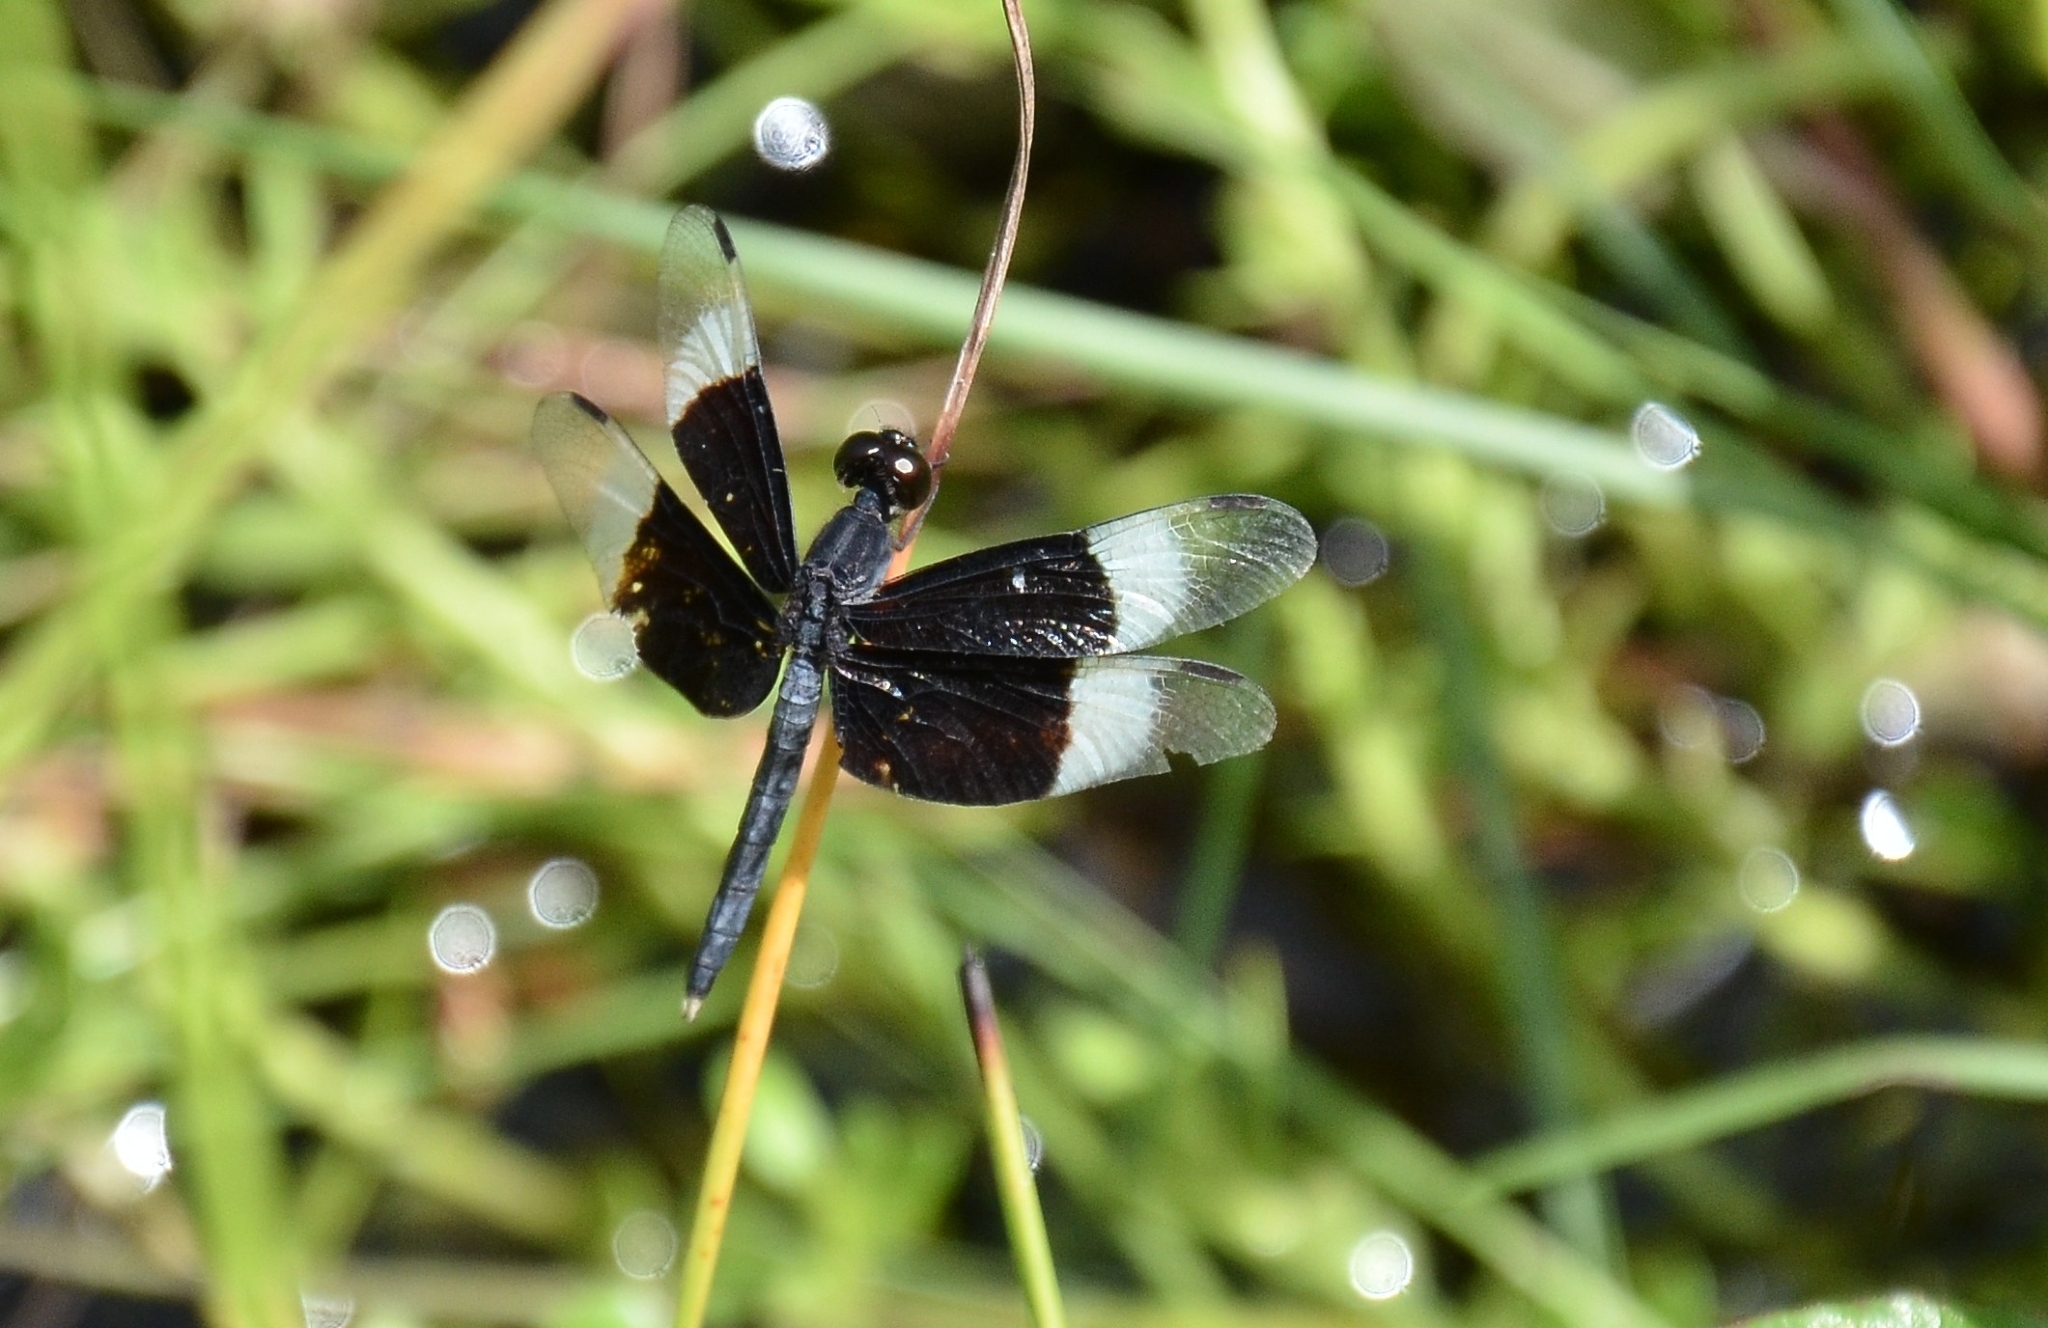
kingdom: Animalia
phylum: Arthropoda
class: Insecta
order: Odonata
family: Libellulidae
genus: Neurothemis
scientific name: Neurothemis tullia
